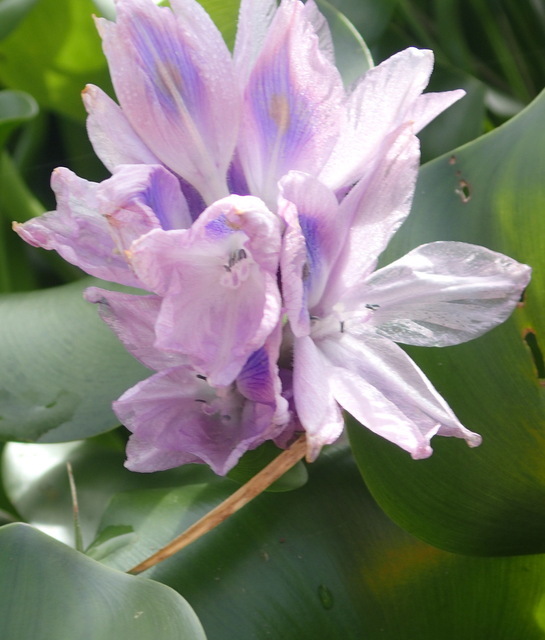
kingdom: Plantae
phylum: Tracheophyta
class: Liliopsida
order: Commelinales
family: Pontederiaceae
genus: Pontederia
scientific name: Pontederia crassipes
